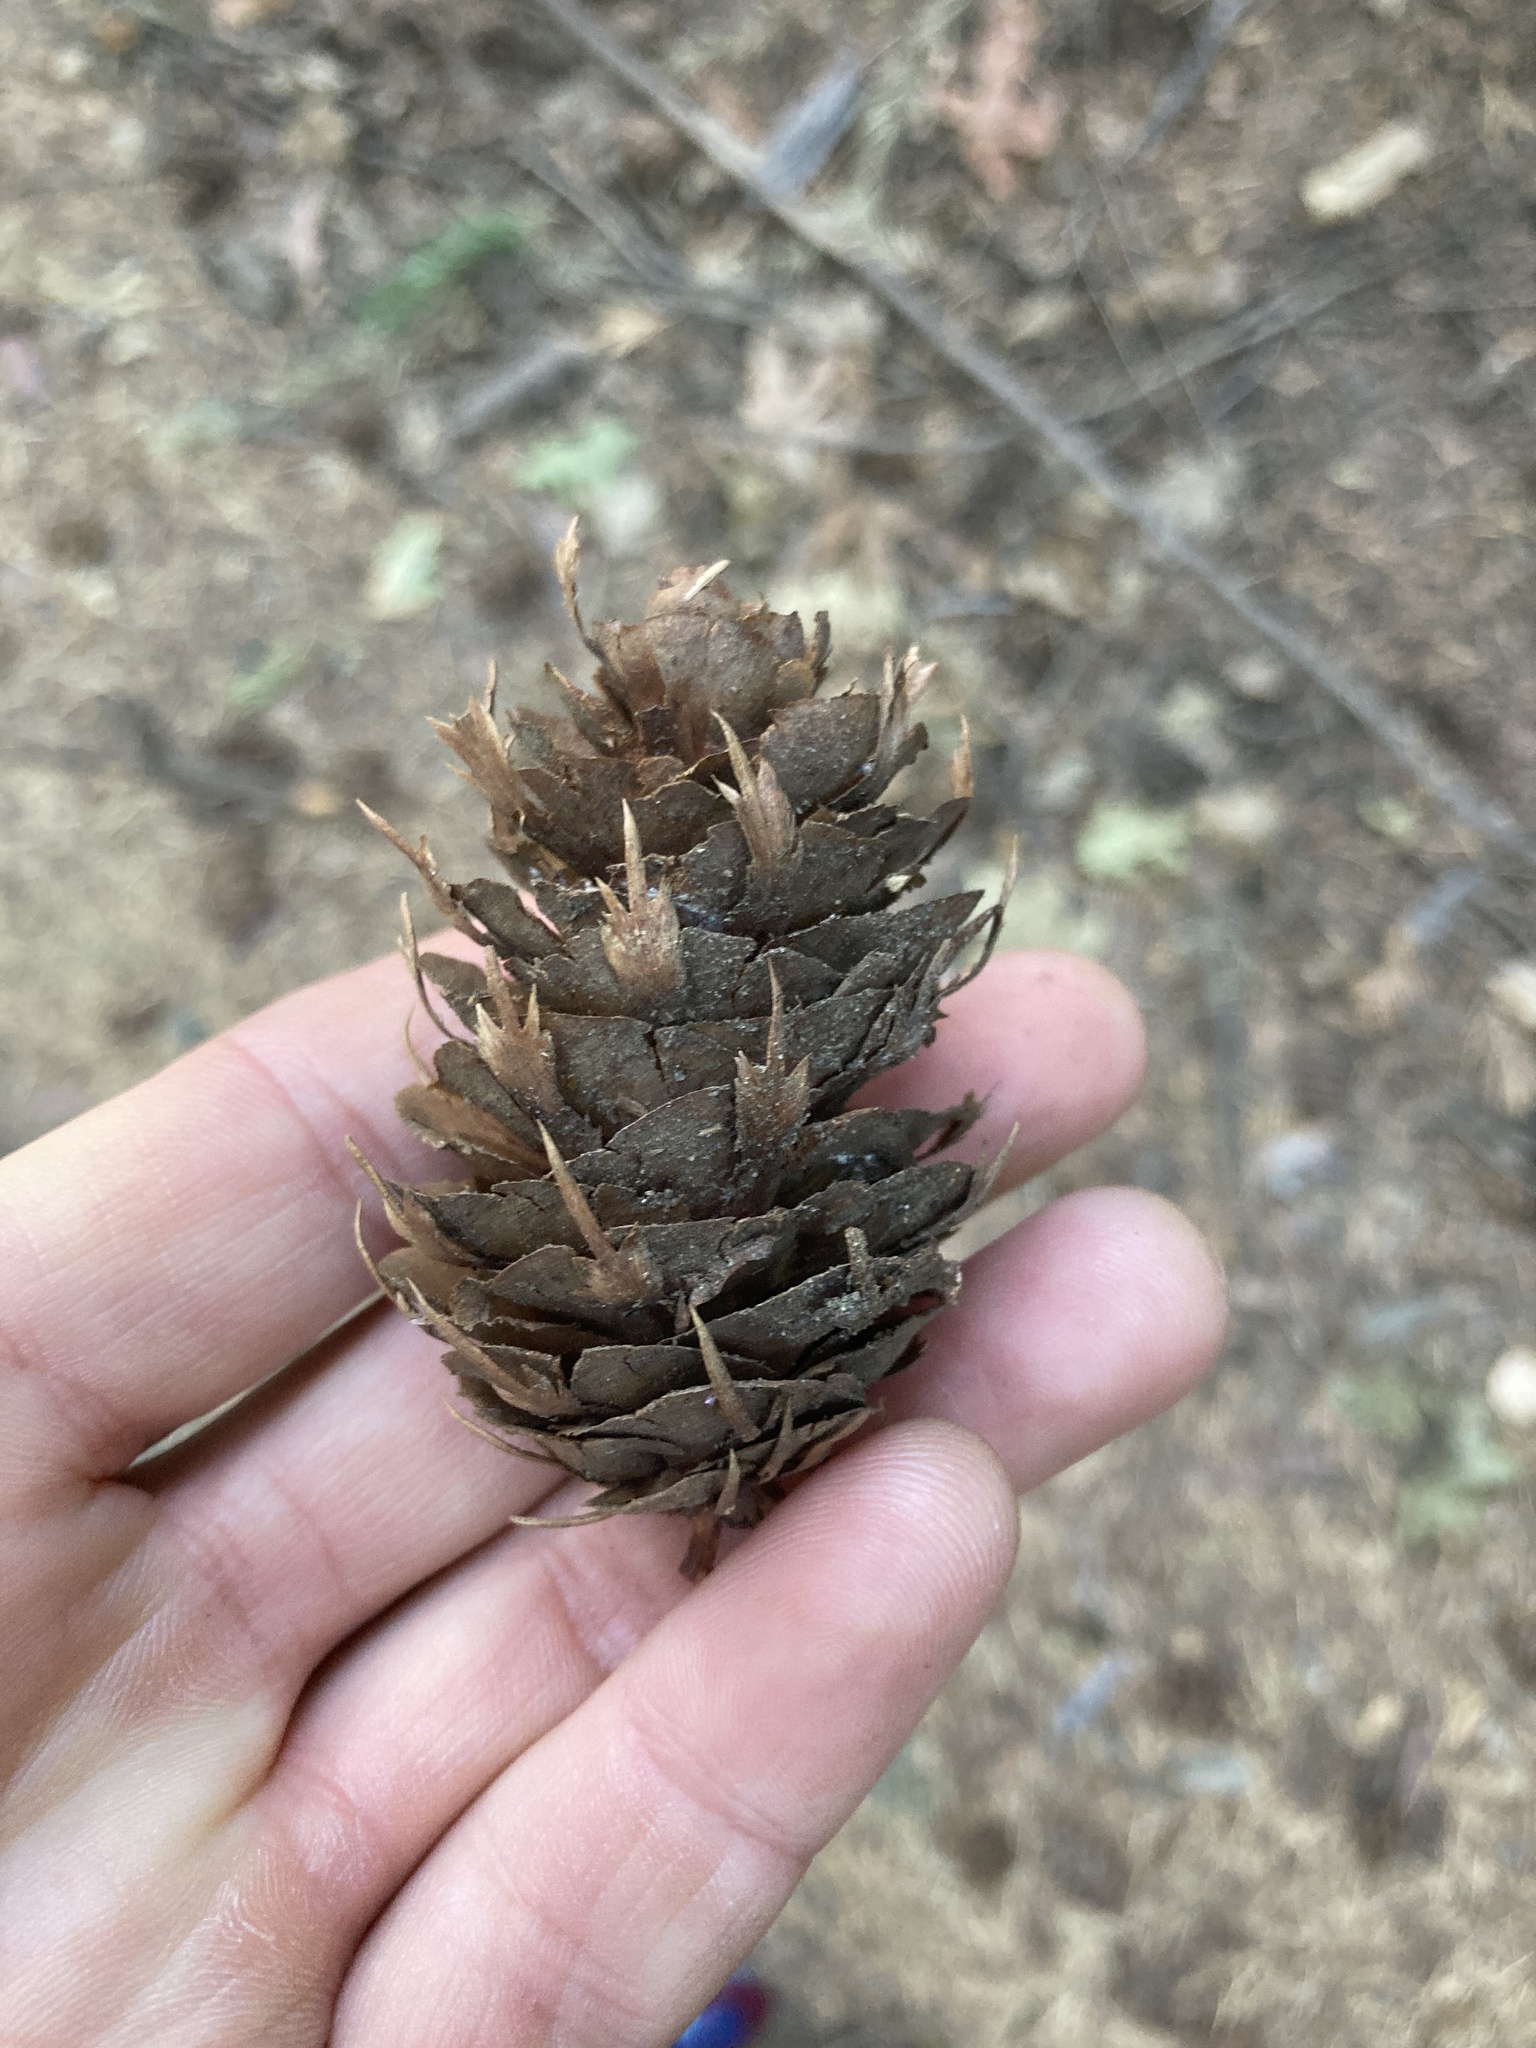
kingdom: Plantae
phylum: Tracheophyta
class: Pinopsida
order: Pinales
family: Pinaceae
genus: Pseudotsuga
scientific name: Pseudotsuga menziesii
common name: Douglas fir
